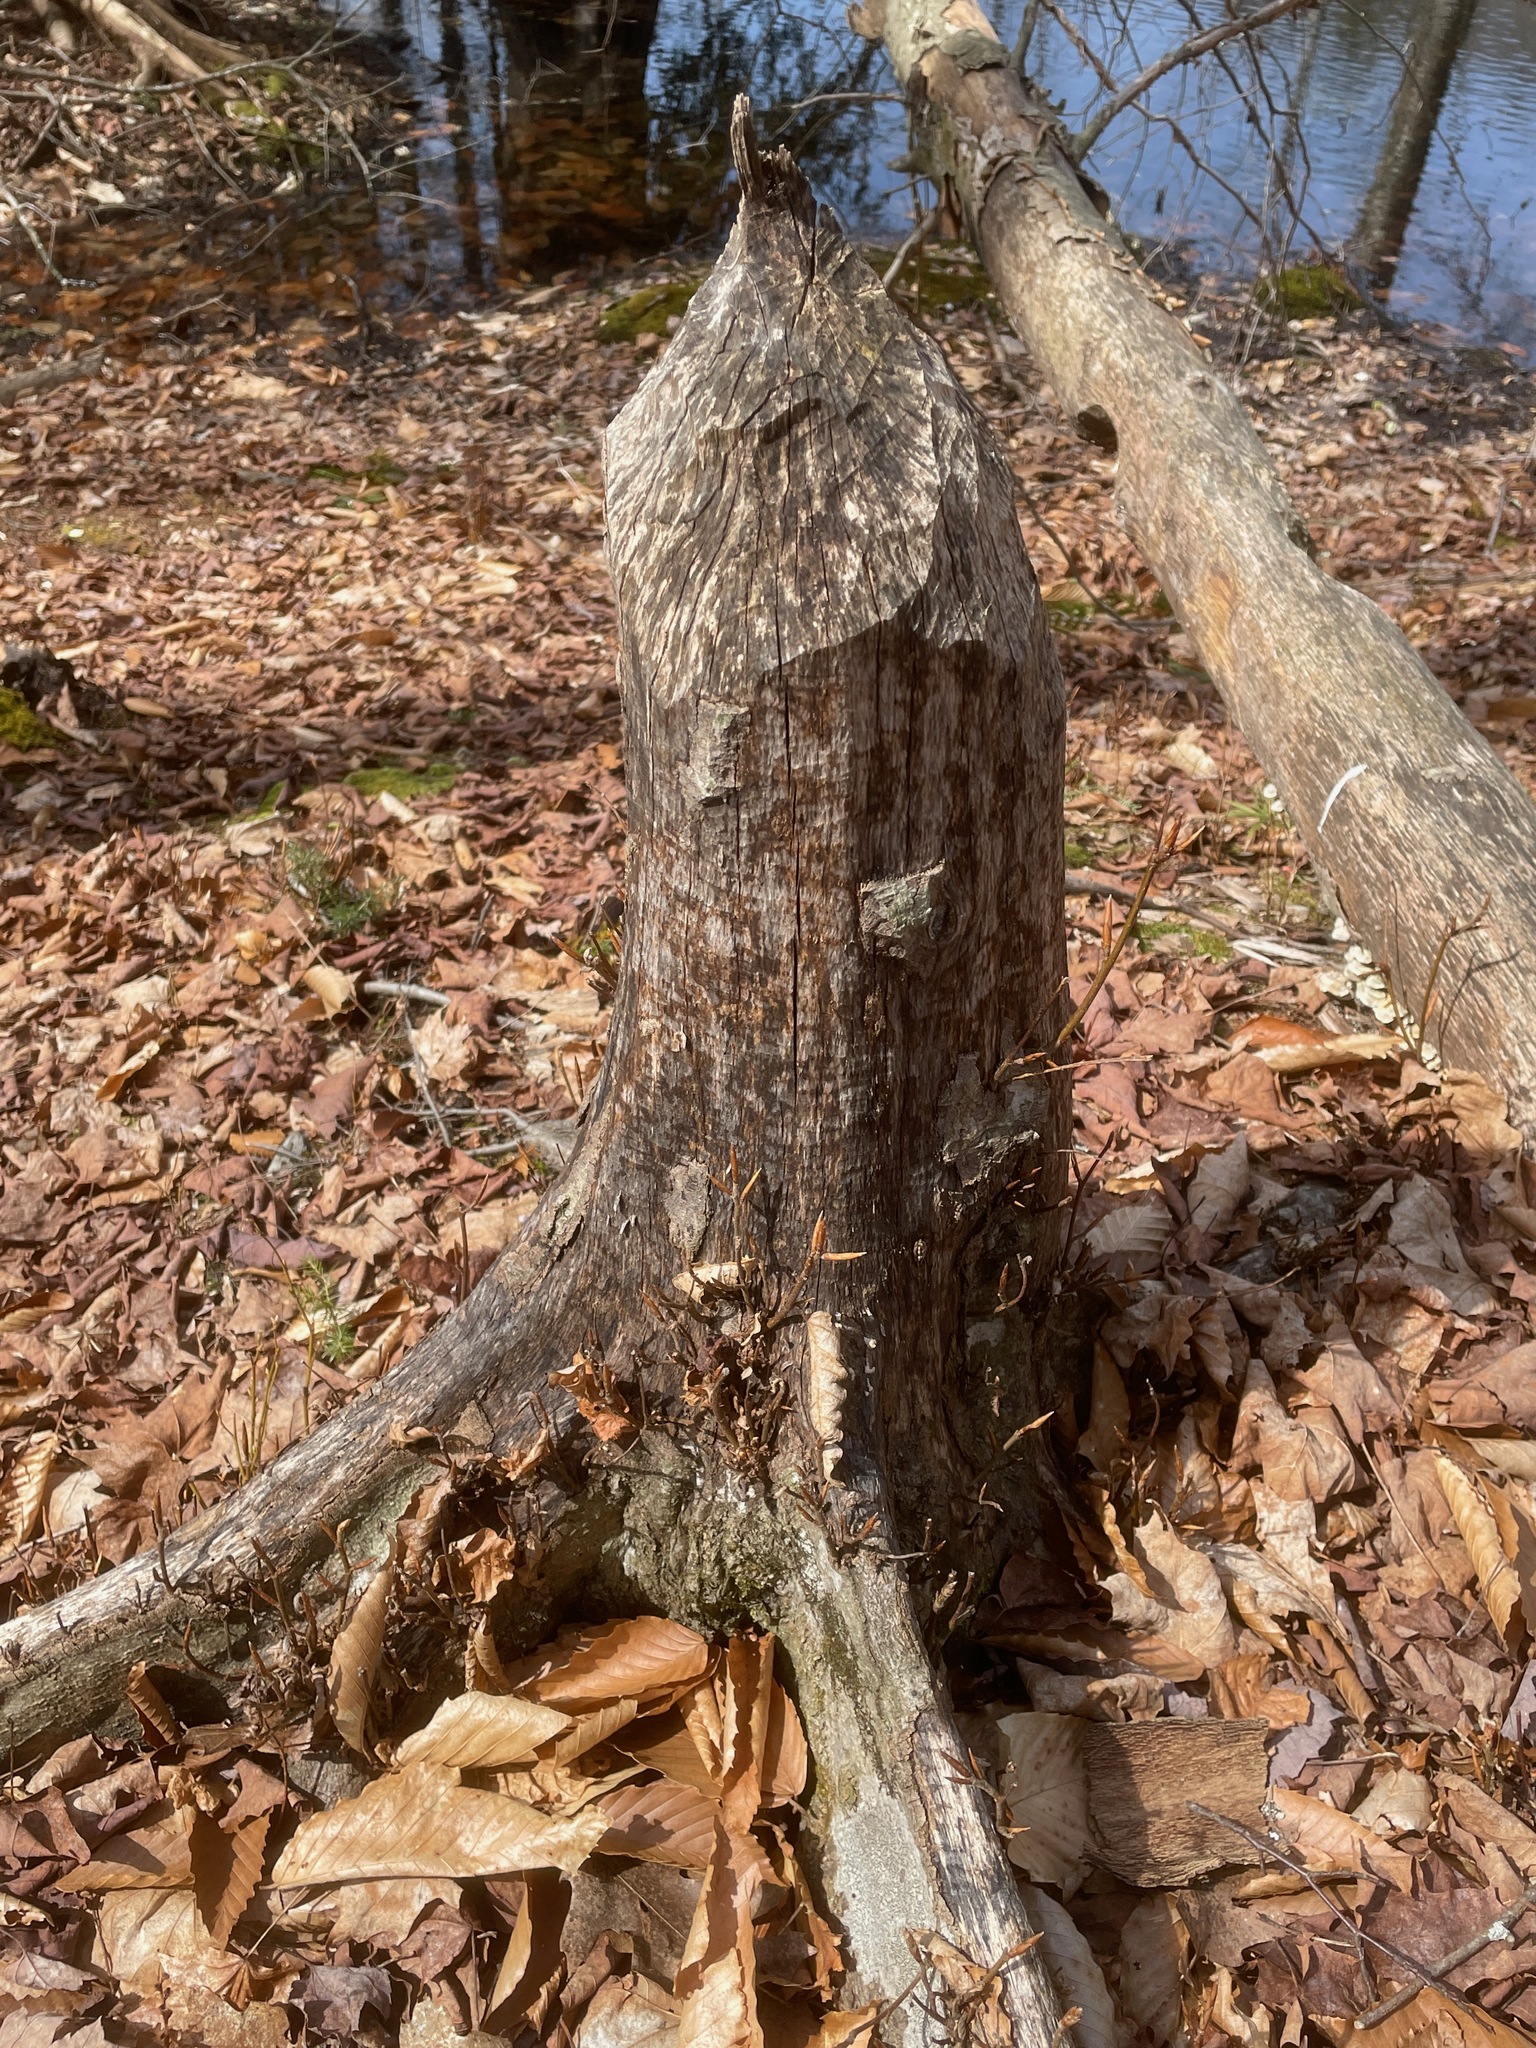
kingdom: Plantae
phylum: Tracheophyta
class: Magnoliopsida
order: Fagales
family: Fagaceae
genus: Fagus
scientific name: Fagus grandifolia
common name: American beech
